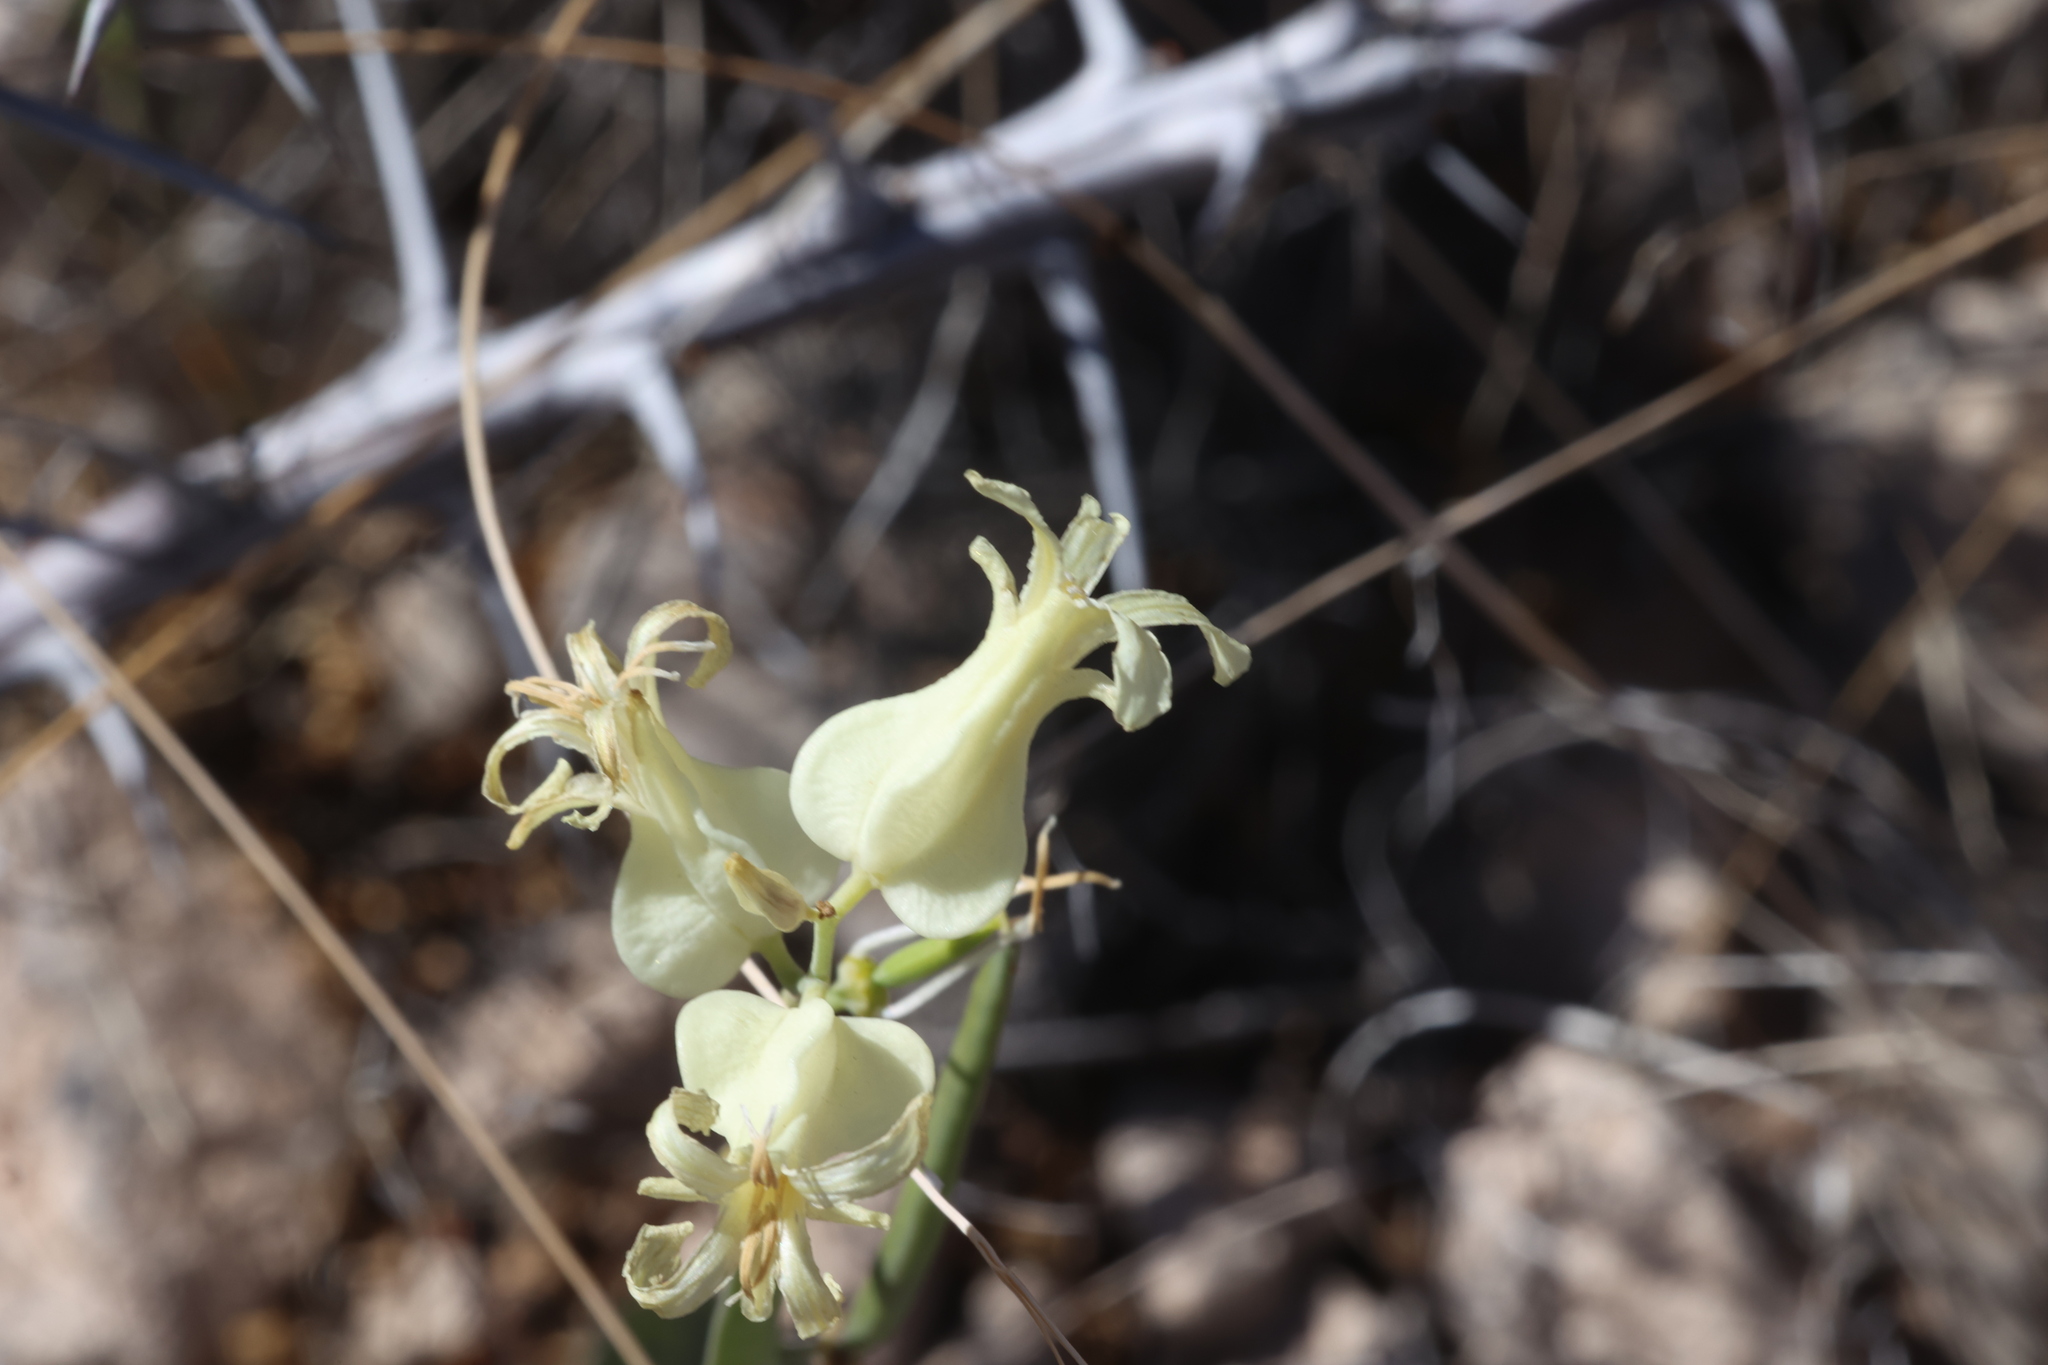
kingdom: Plantae
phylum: Tracheophyta
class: Magnoliopsida
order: Brassicales
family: Brassicaceae
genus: Streptanthus
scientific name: Streptanthus carinatus
